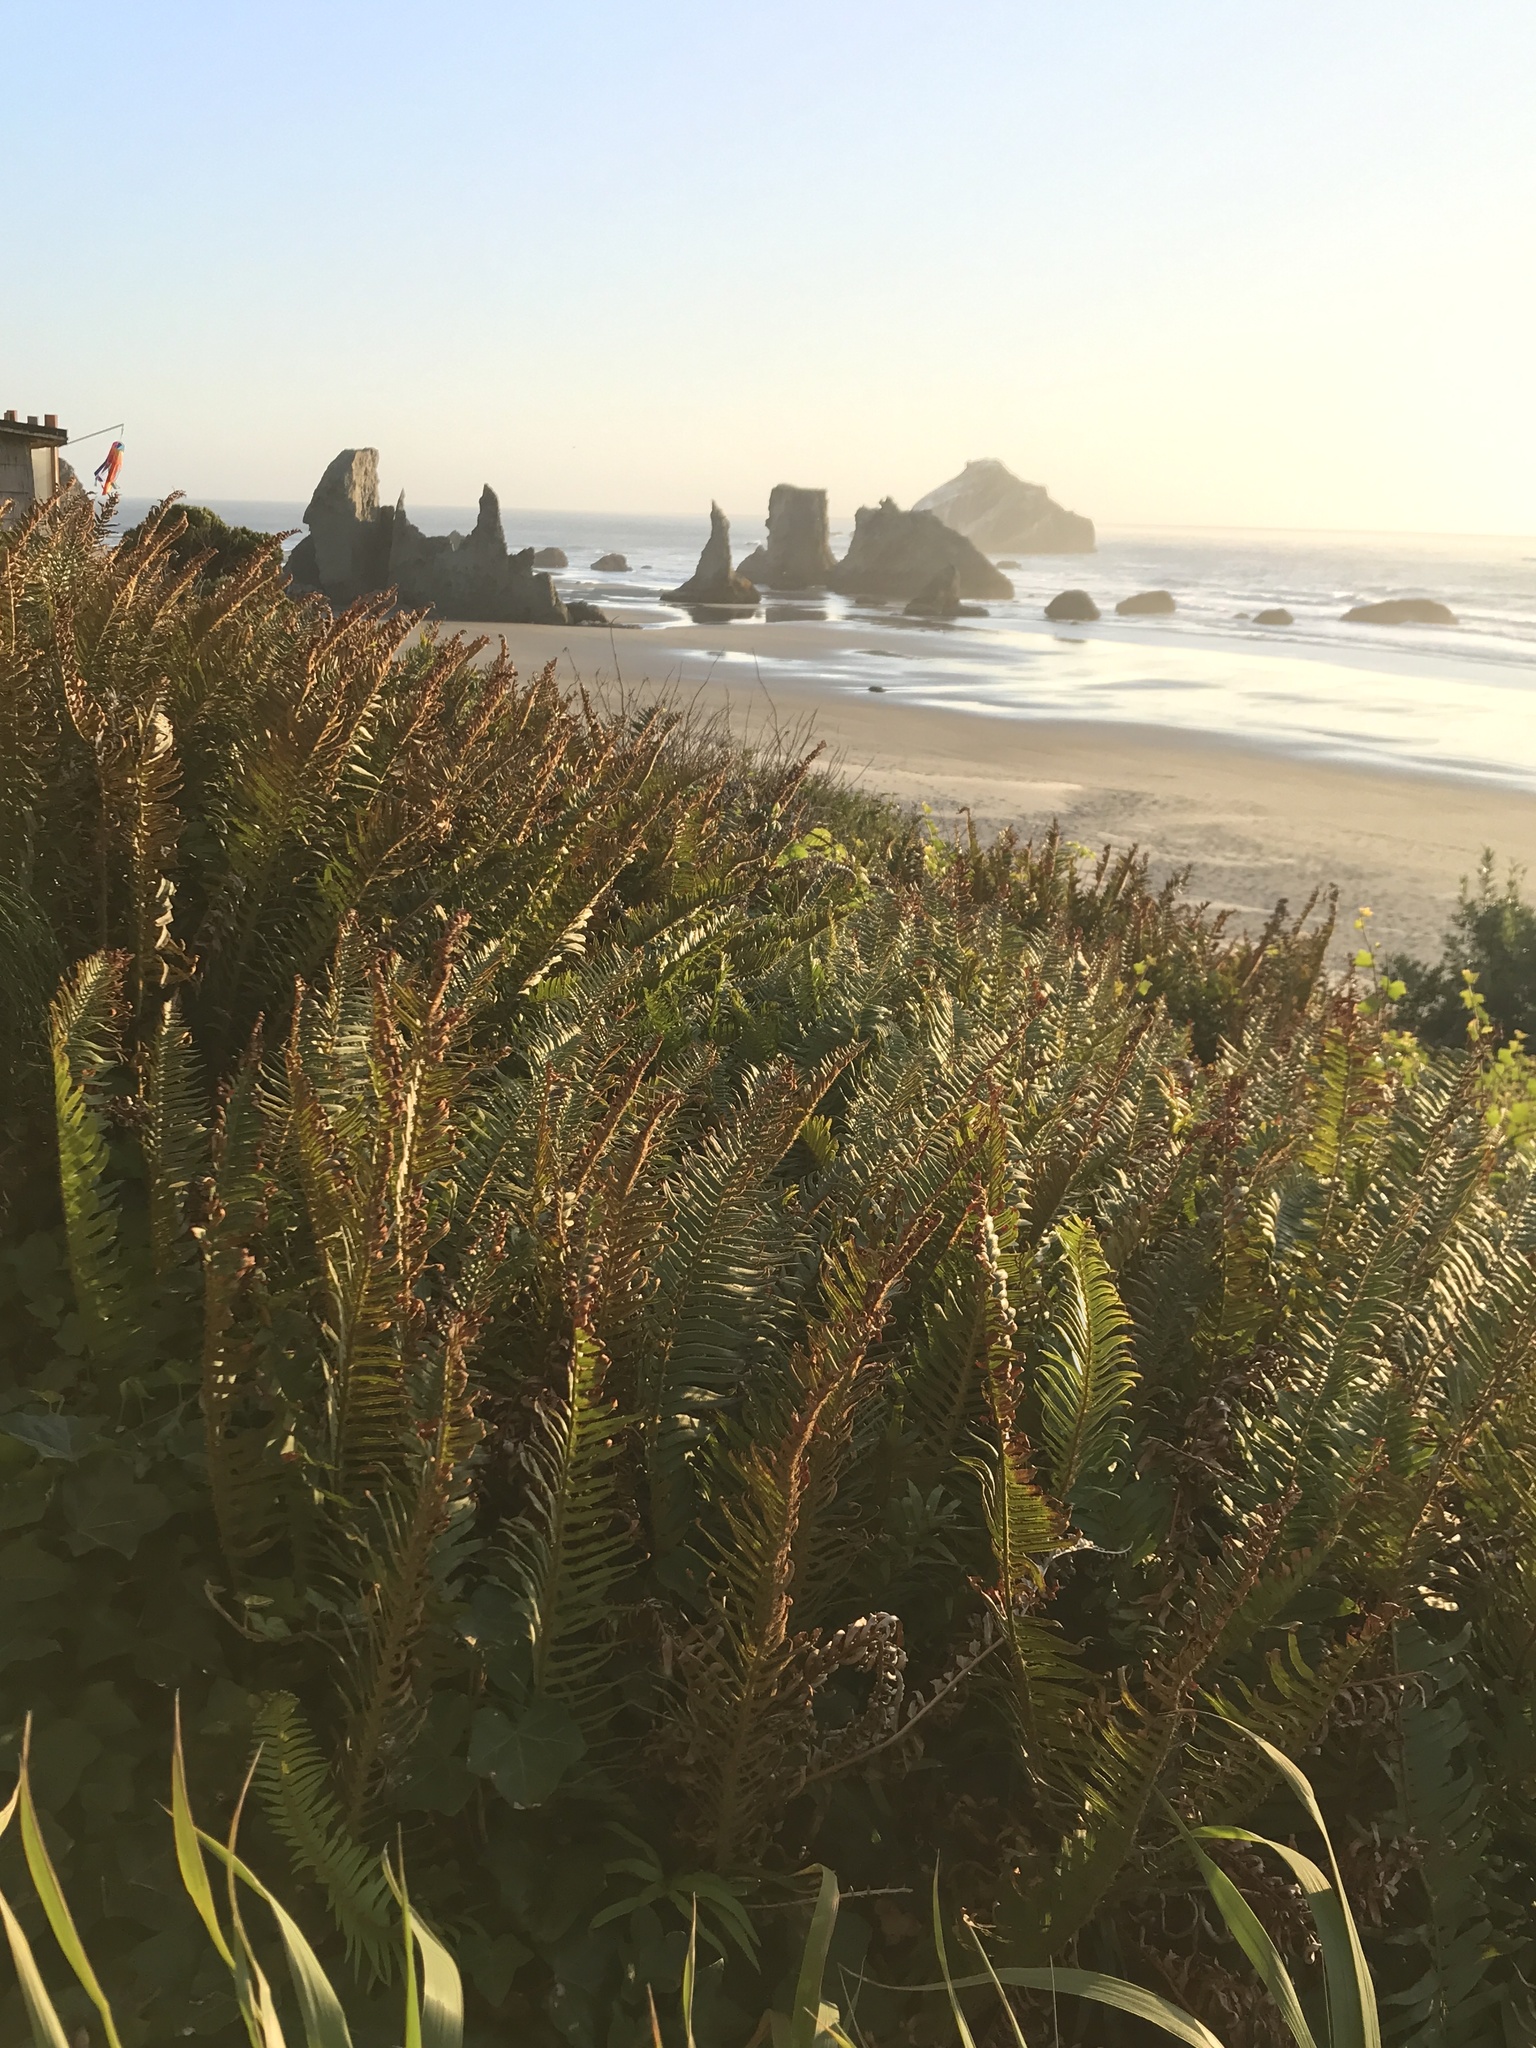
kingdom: Plantae
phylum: Tracheophyta
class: Polypodiopsida
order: Polypodiales
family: Dryopteridaceae
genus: Polystichum
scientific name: Polystichum munitum
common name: Western sword-fern
